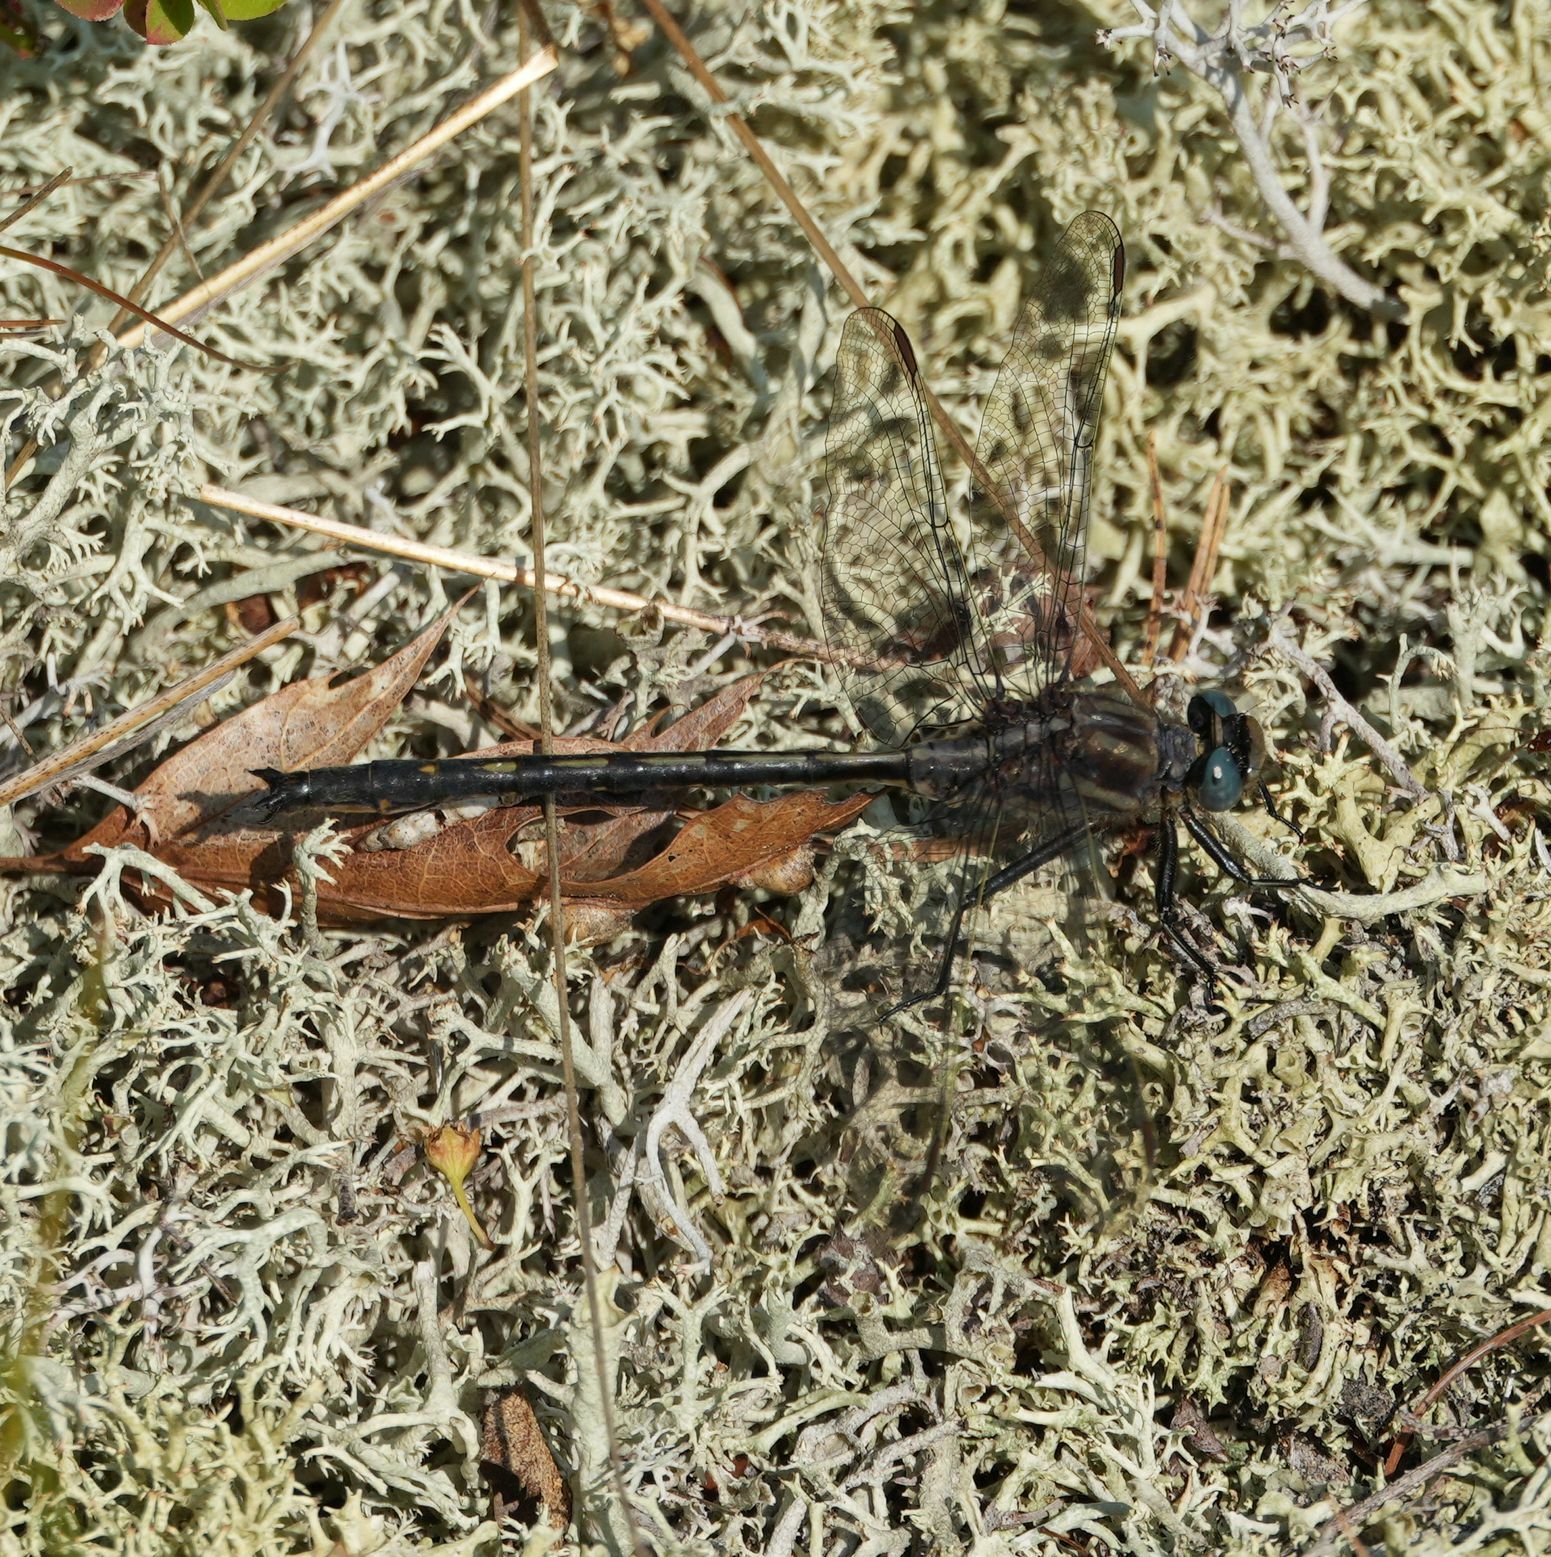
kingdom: Animalia
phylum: Arthropoda
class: Insecta
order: Odonata
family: Gomphidae
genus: Phanogomphus
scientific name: Phanogomphus spicatus
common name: Dusky clubtail
